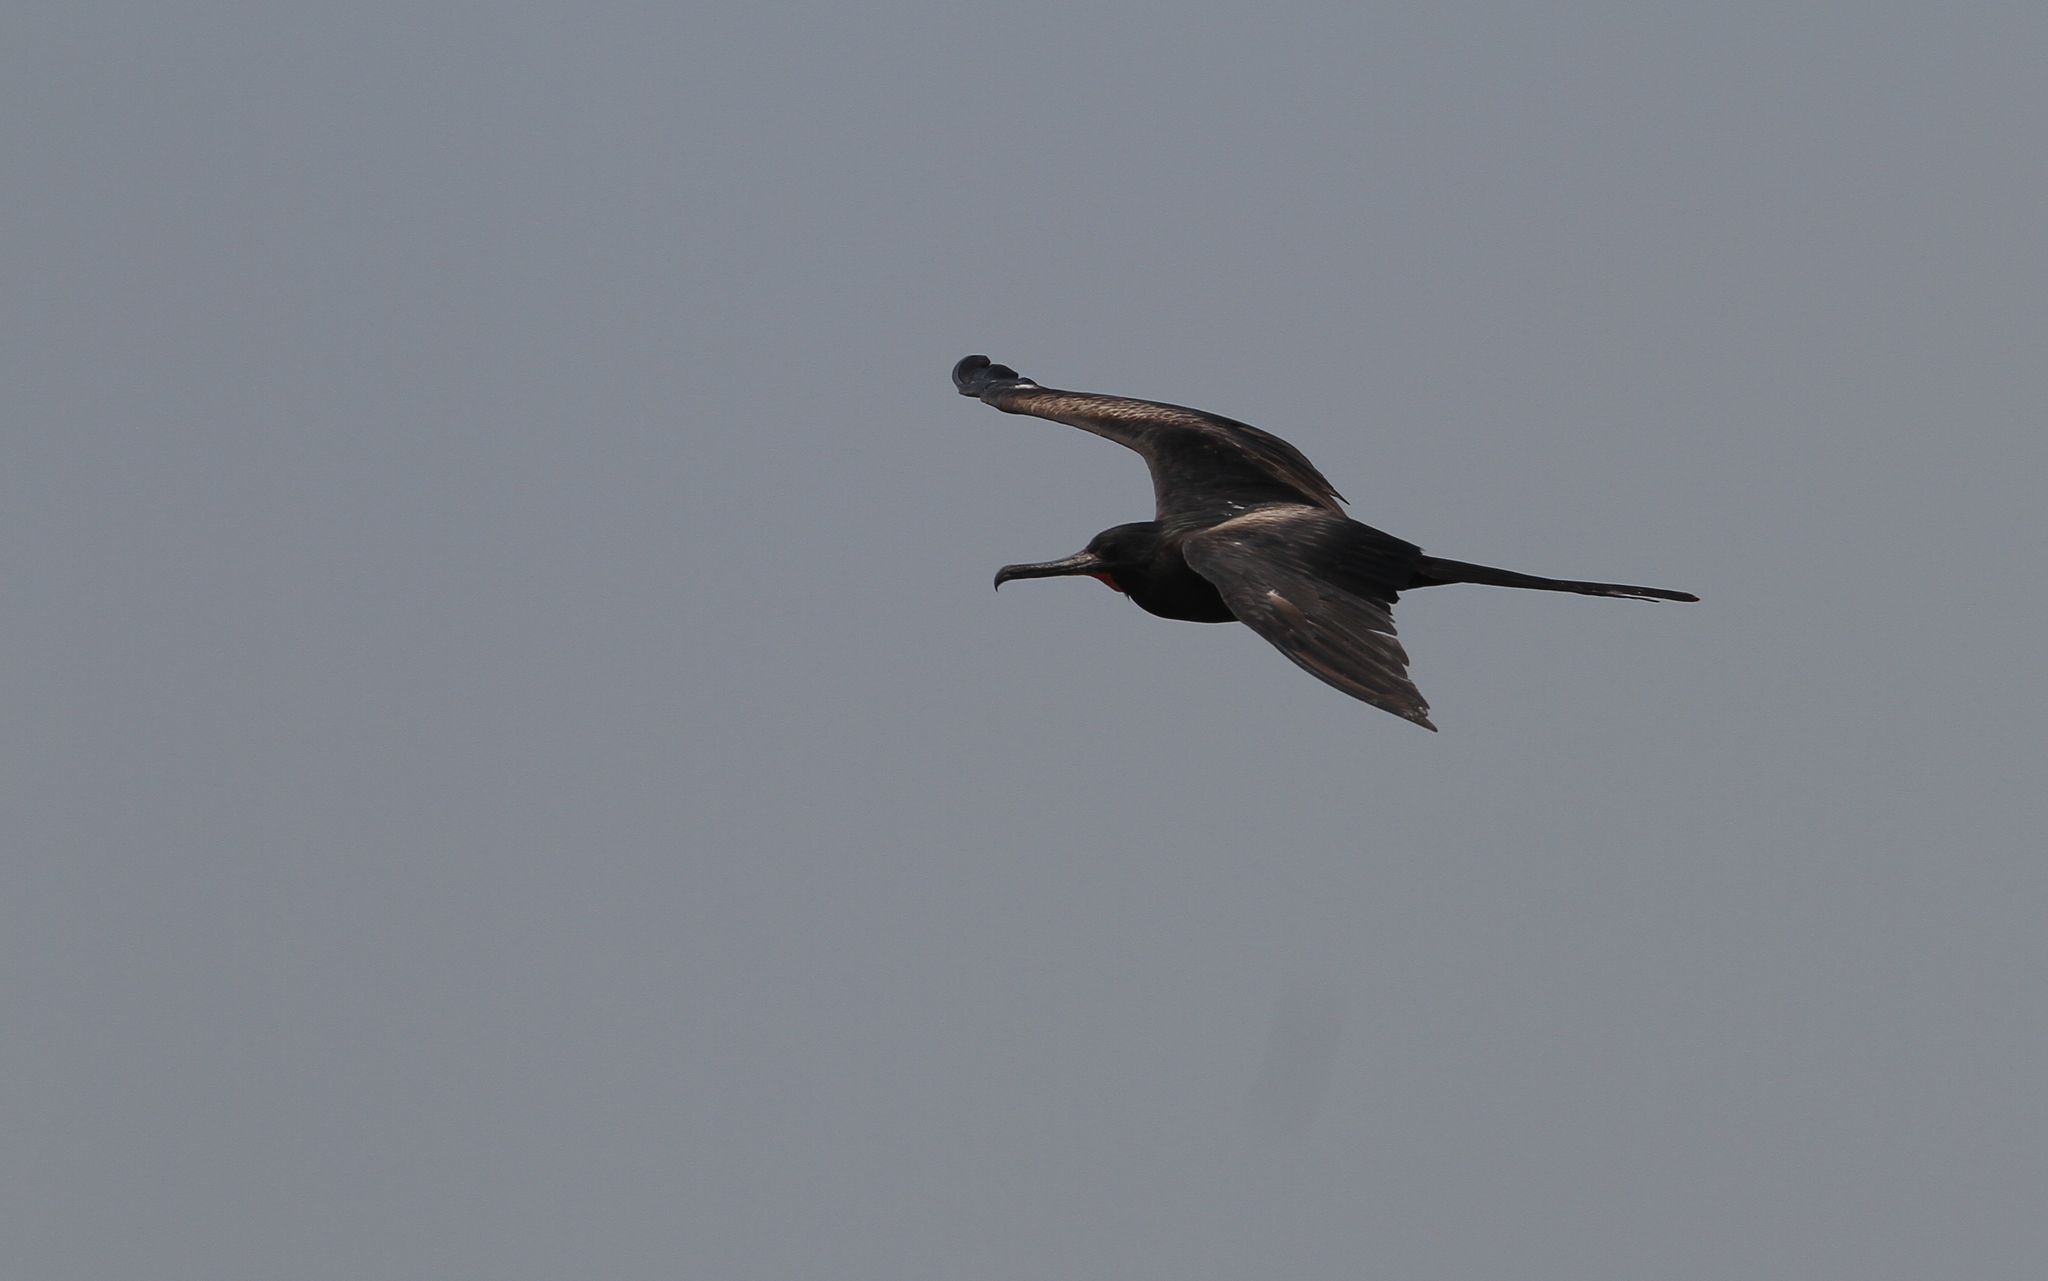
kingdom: Animalia
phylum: Chordata
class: Aves
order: Suliformes
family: Fregatidae
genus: Fregata
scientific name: Fregata andrewsi
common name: Christmas frigatebird
